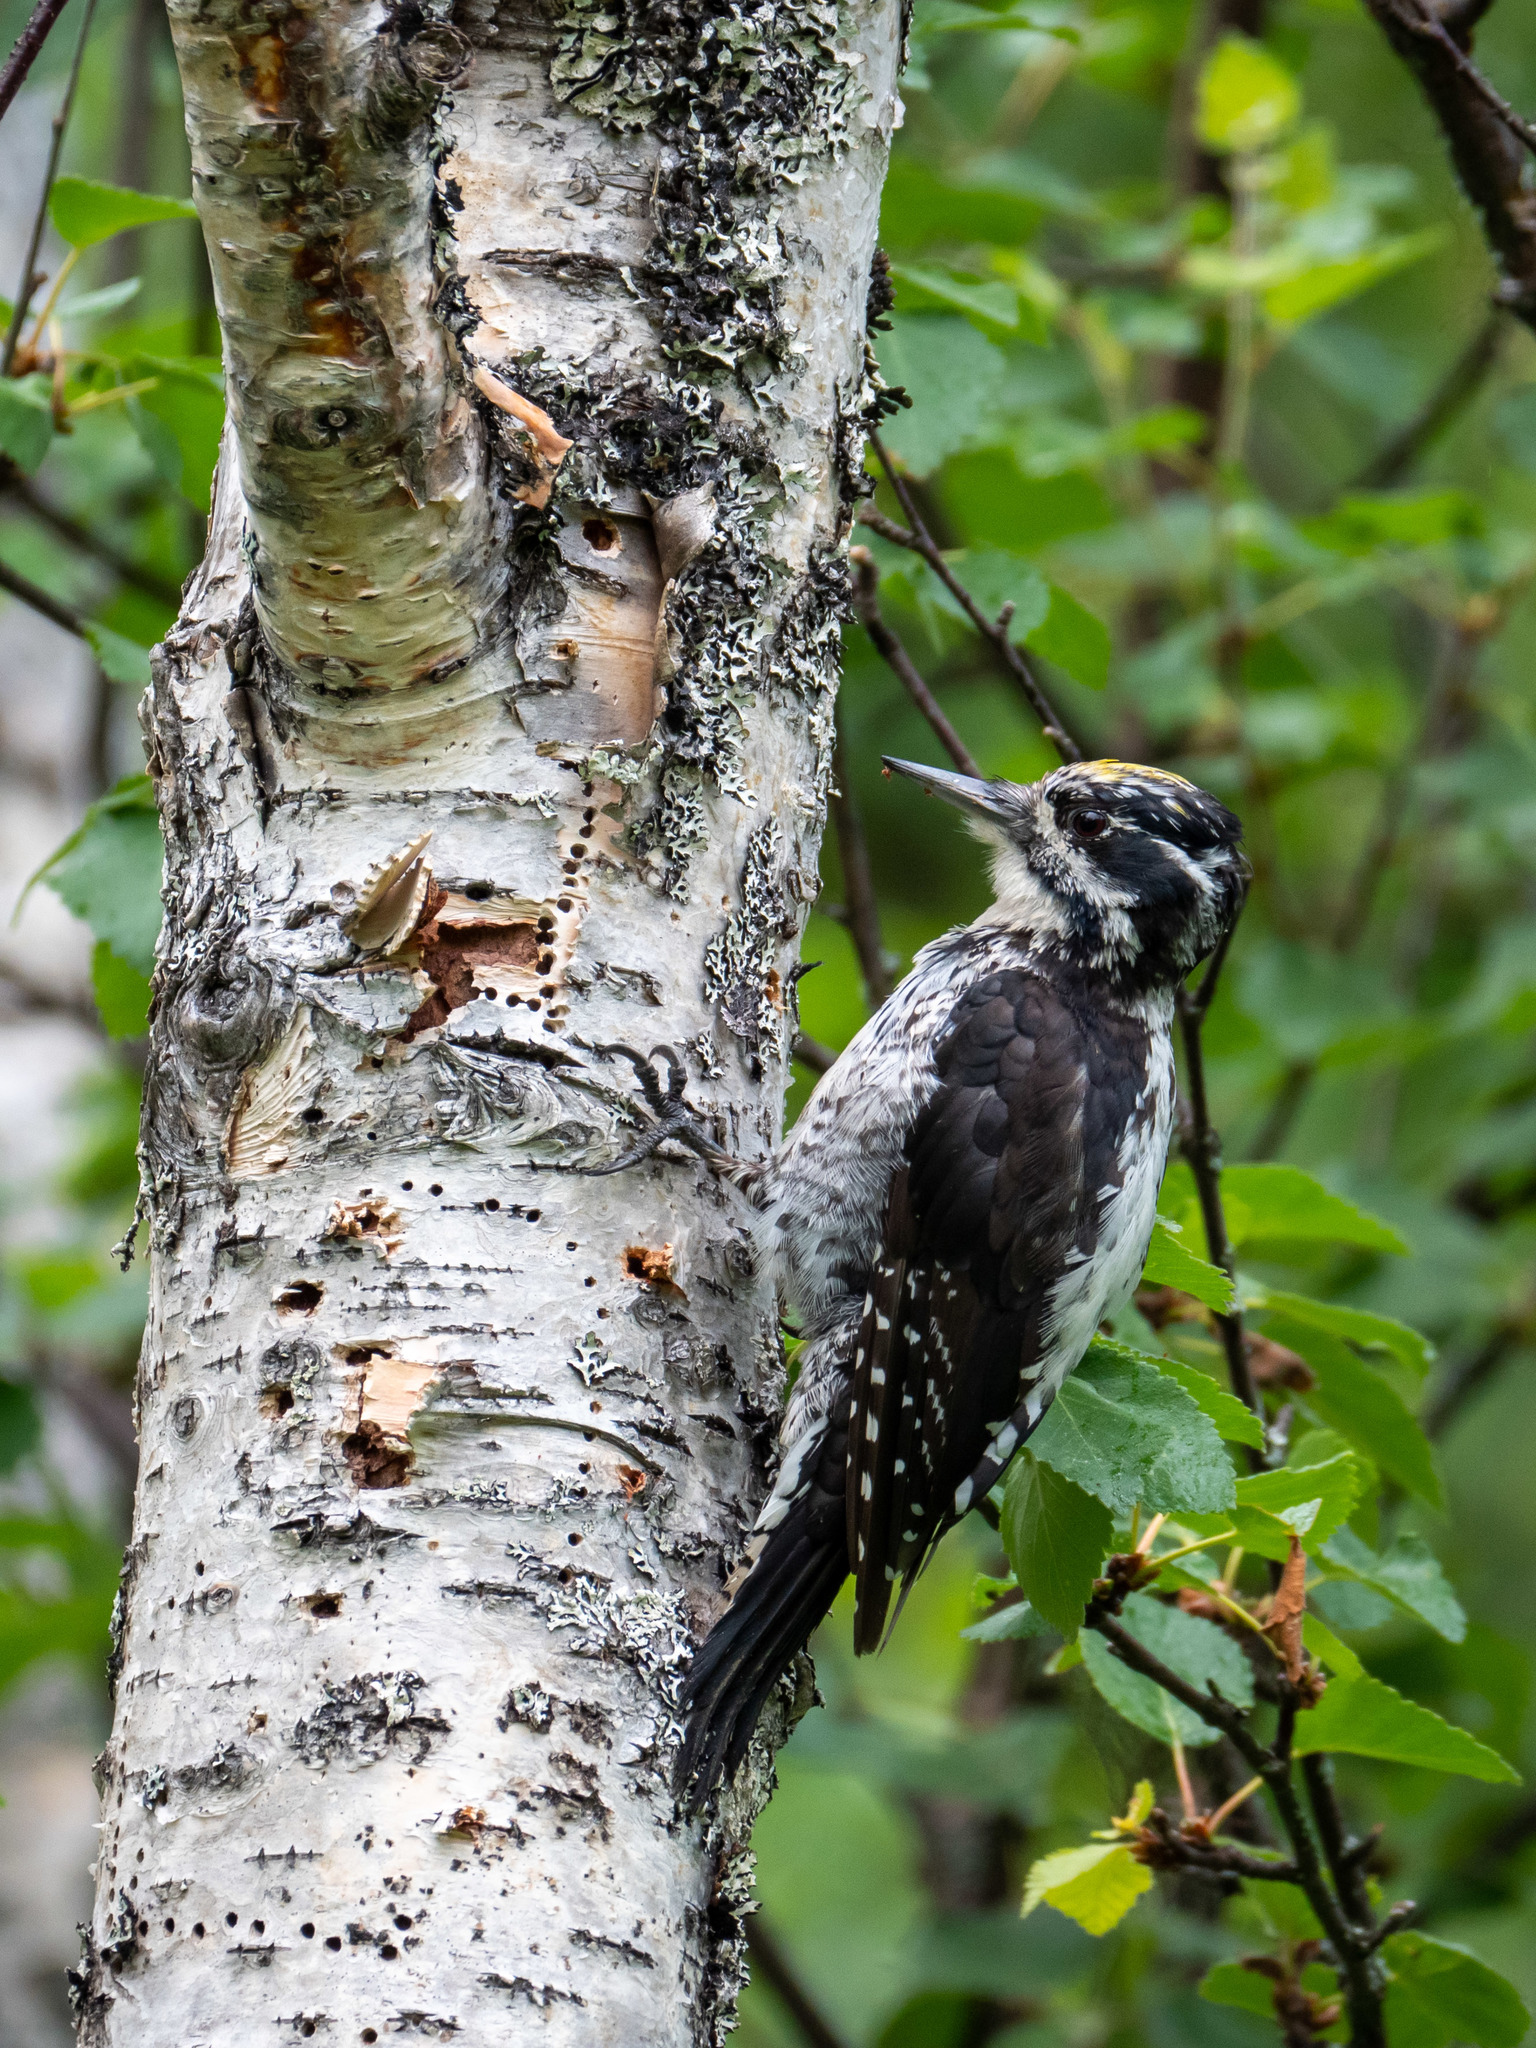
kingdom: Animalia
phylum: Chordata
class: Aves
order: Piciformes
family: Picidae
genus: Picoides
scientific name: Picoides tridactylus
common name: Eurasian three-toed woodpecker
